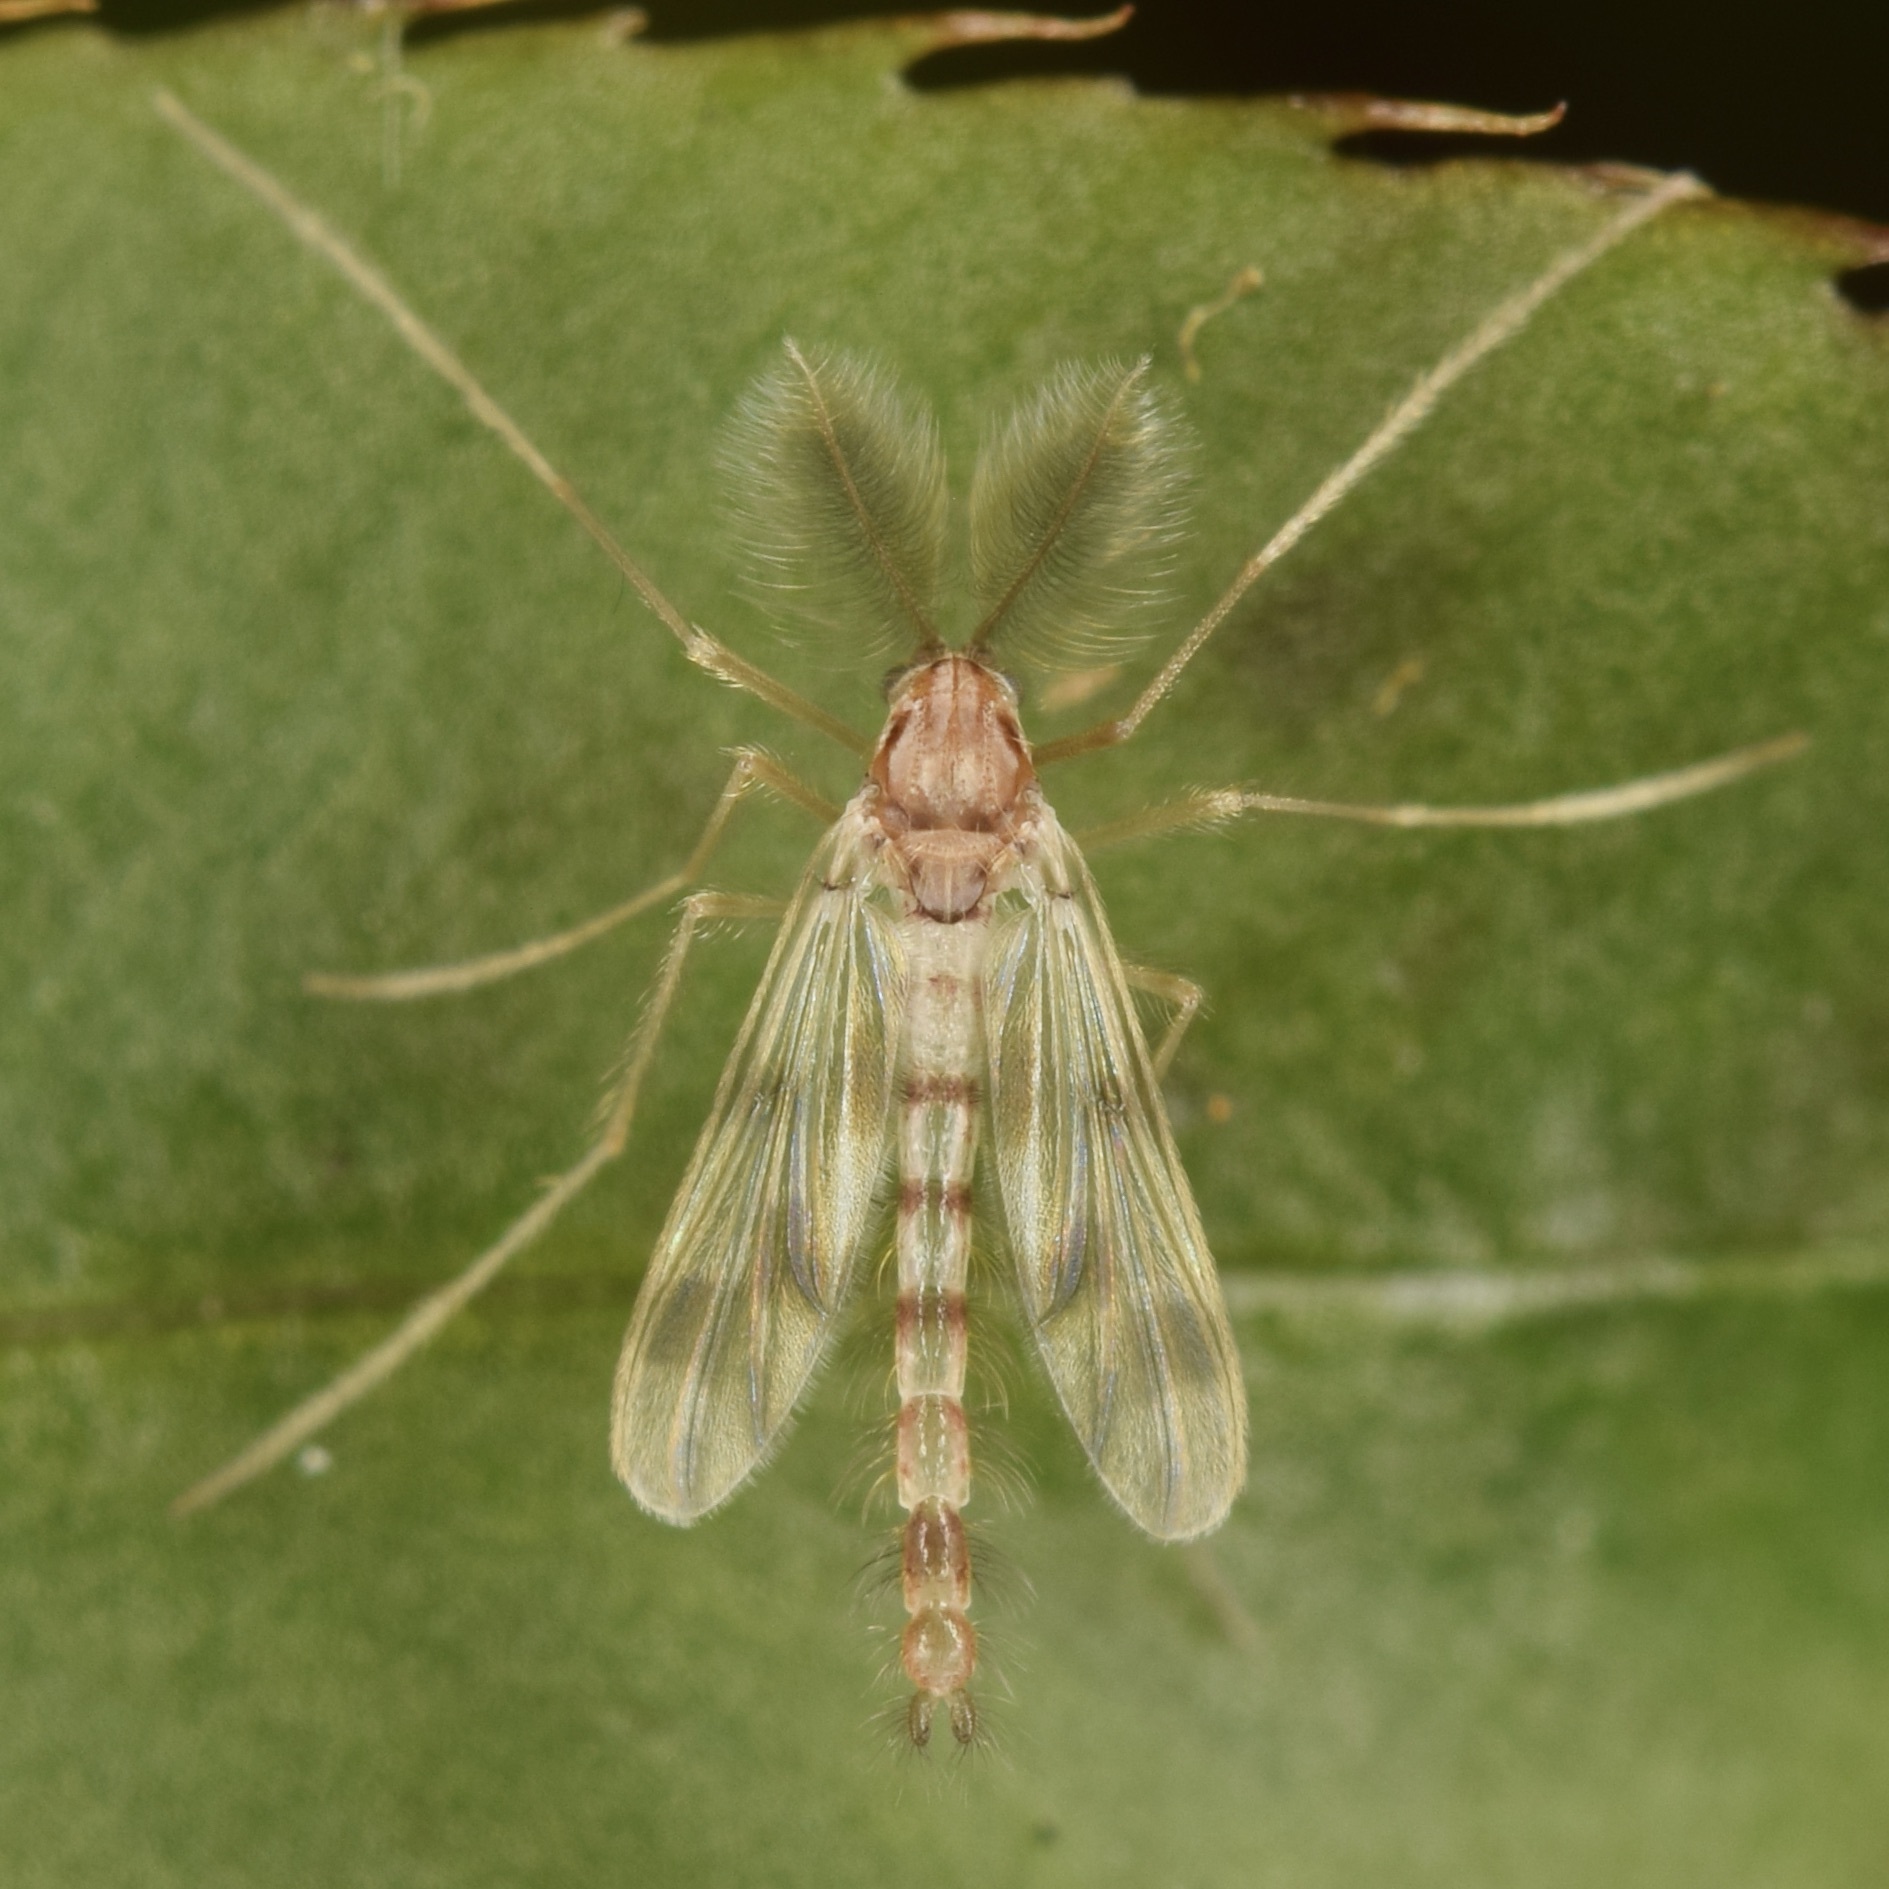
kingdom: Animalia
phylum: Arthropoda
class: Insecta
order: Diptera
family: Chironomidae
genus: Zavrelimyia
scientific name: Zavrelimyia sinuosa
